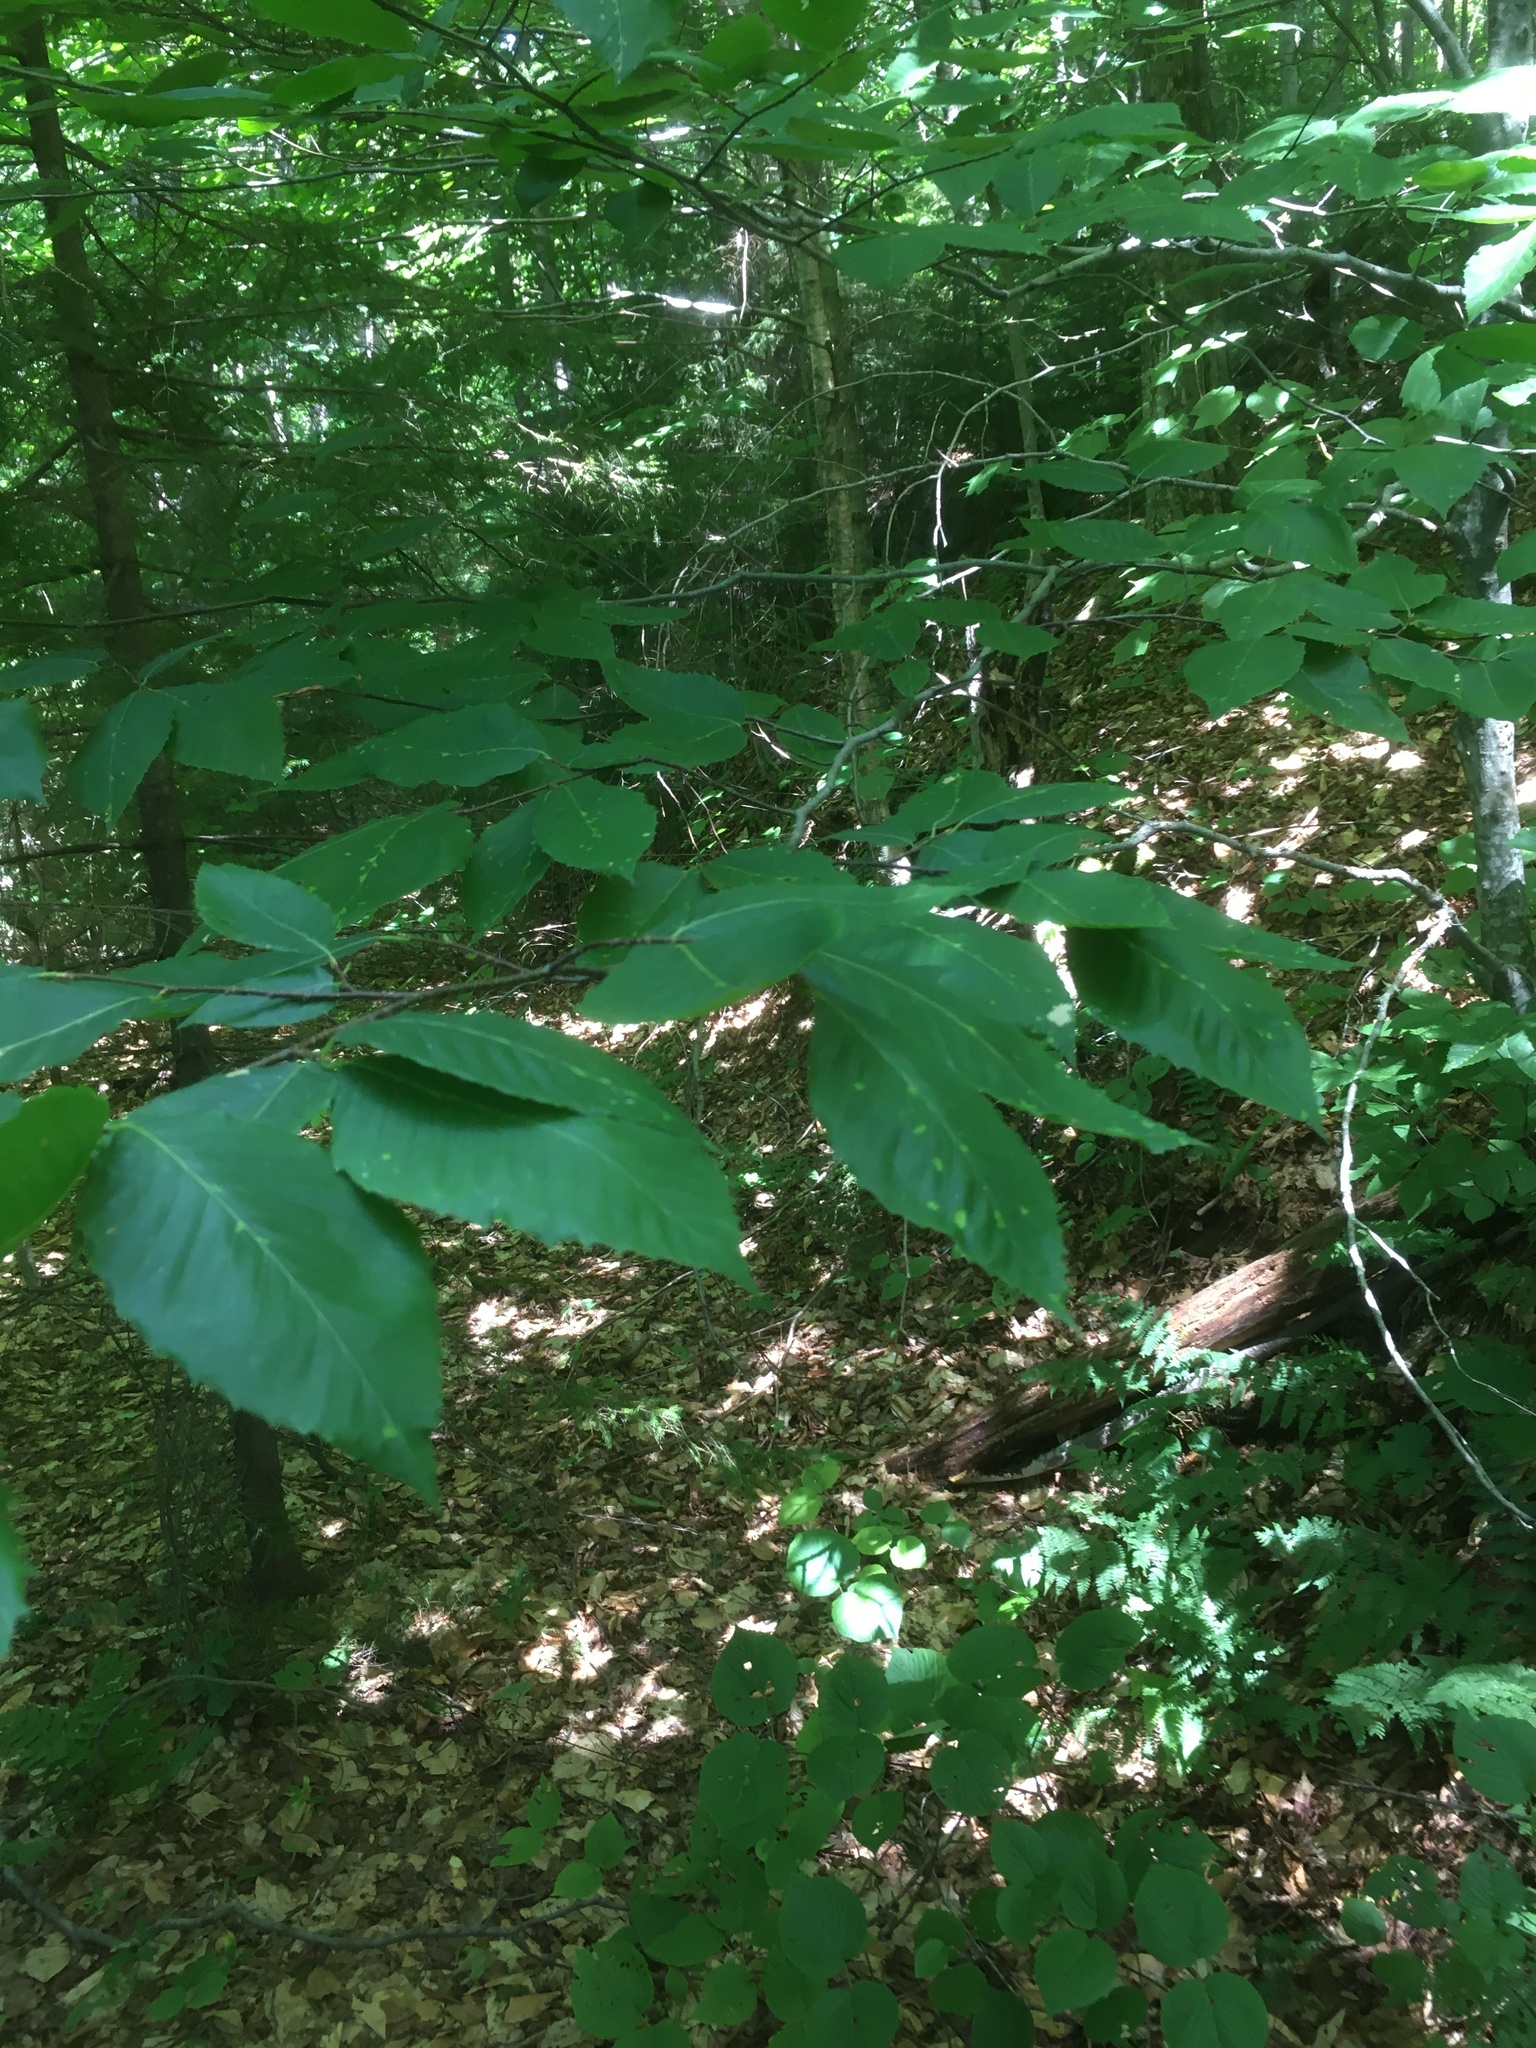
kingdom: Plantae
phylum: Tracheophyta
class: Magnoliopsida
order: Fagales
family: Fagaceae
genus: Fagus
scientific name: Fagus grandifolia
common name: American beech
